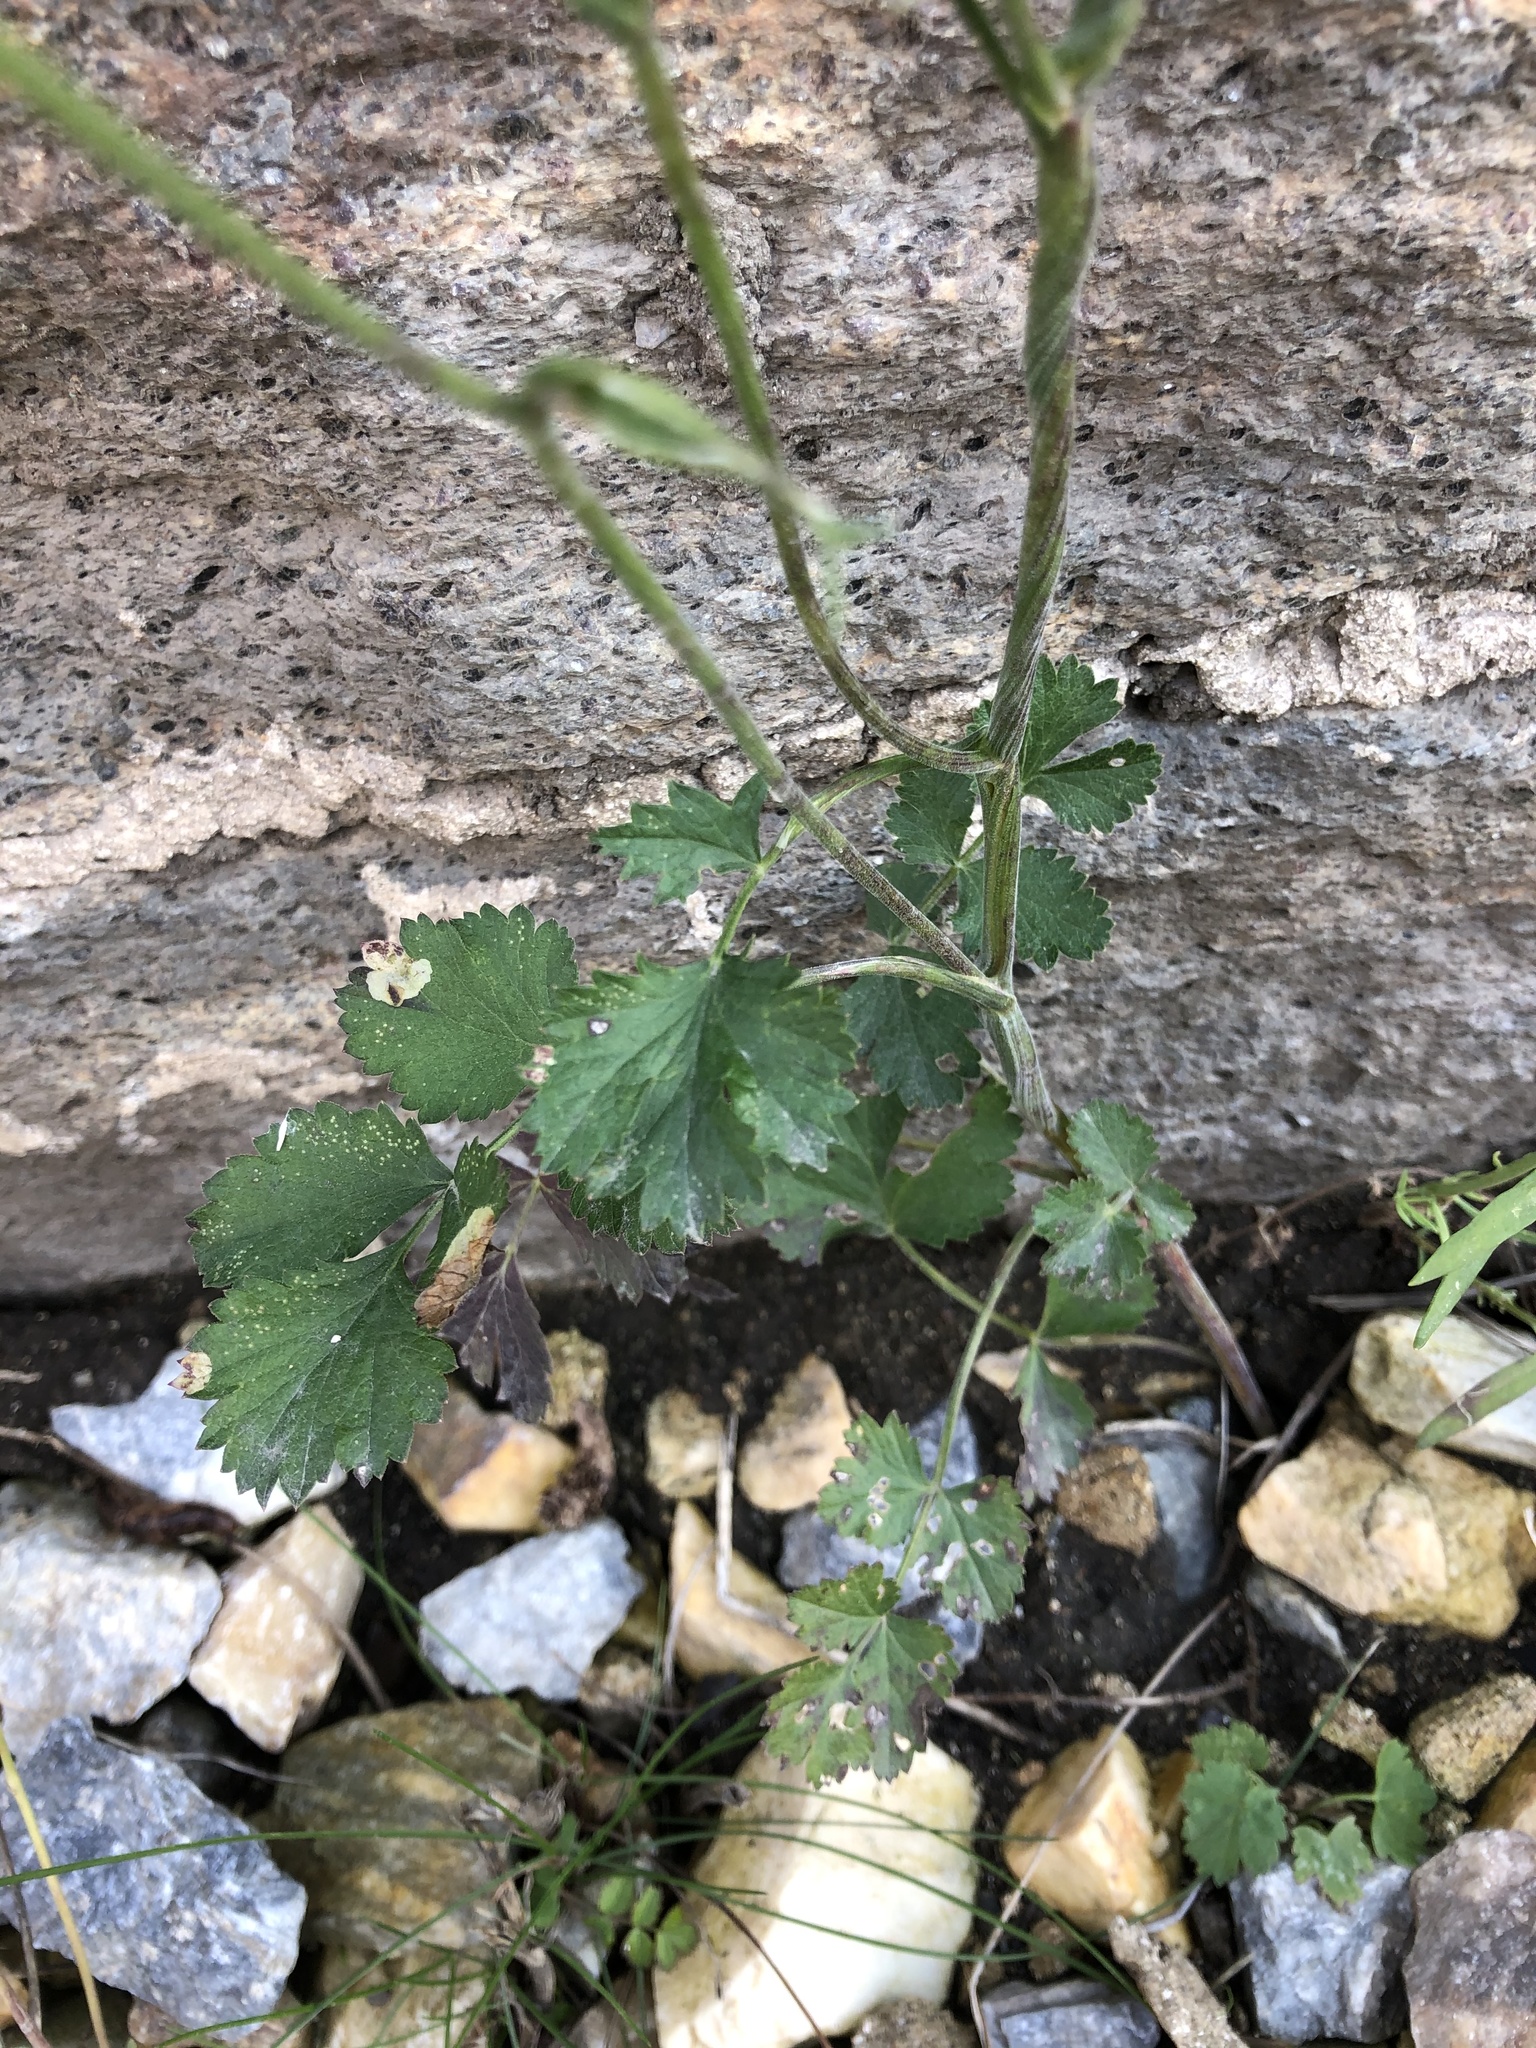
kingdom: Plantae
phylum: Tracheophyta
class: Magnoliopsida
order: Apiales
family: Apiaceae
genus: Pimpinella
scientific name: Pimpinella saxifraga
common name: Burnet-saxifrage
